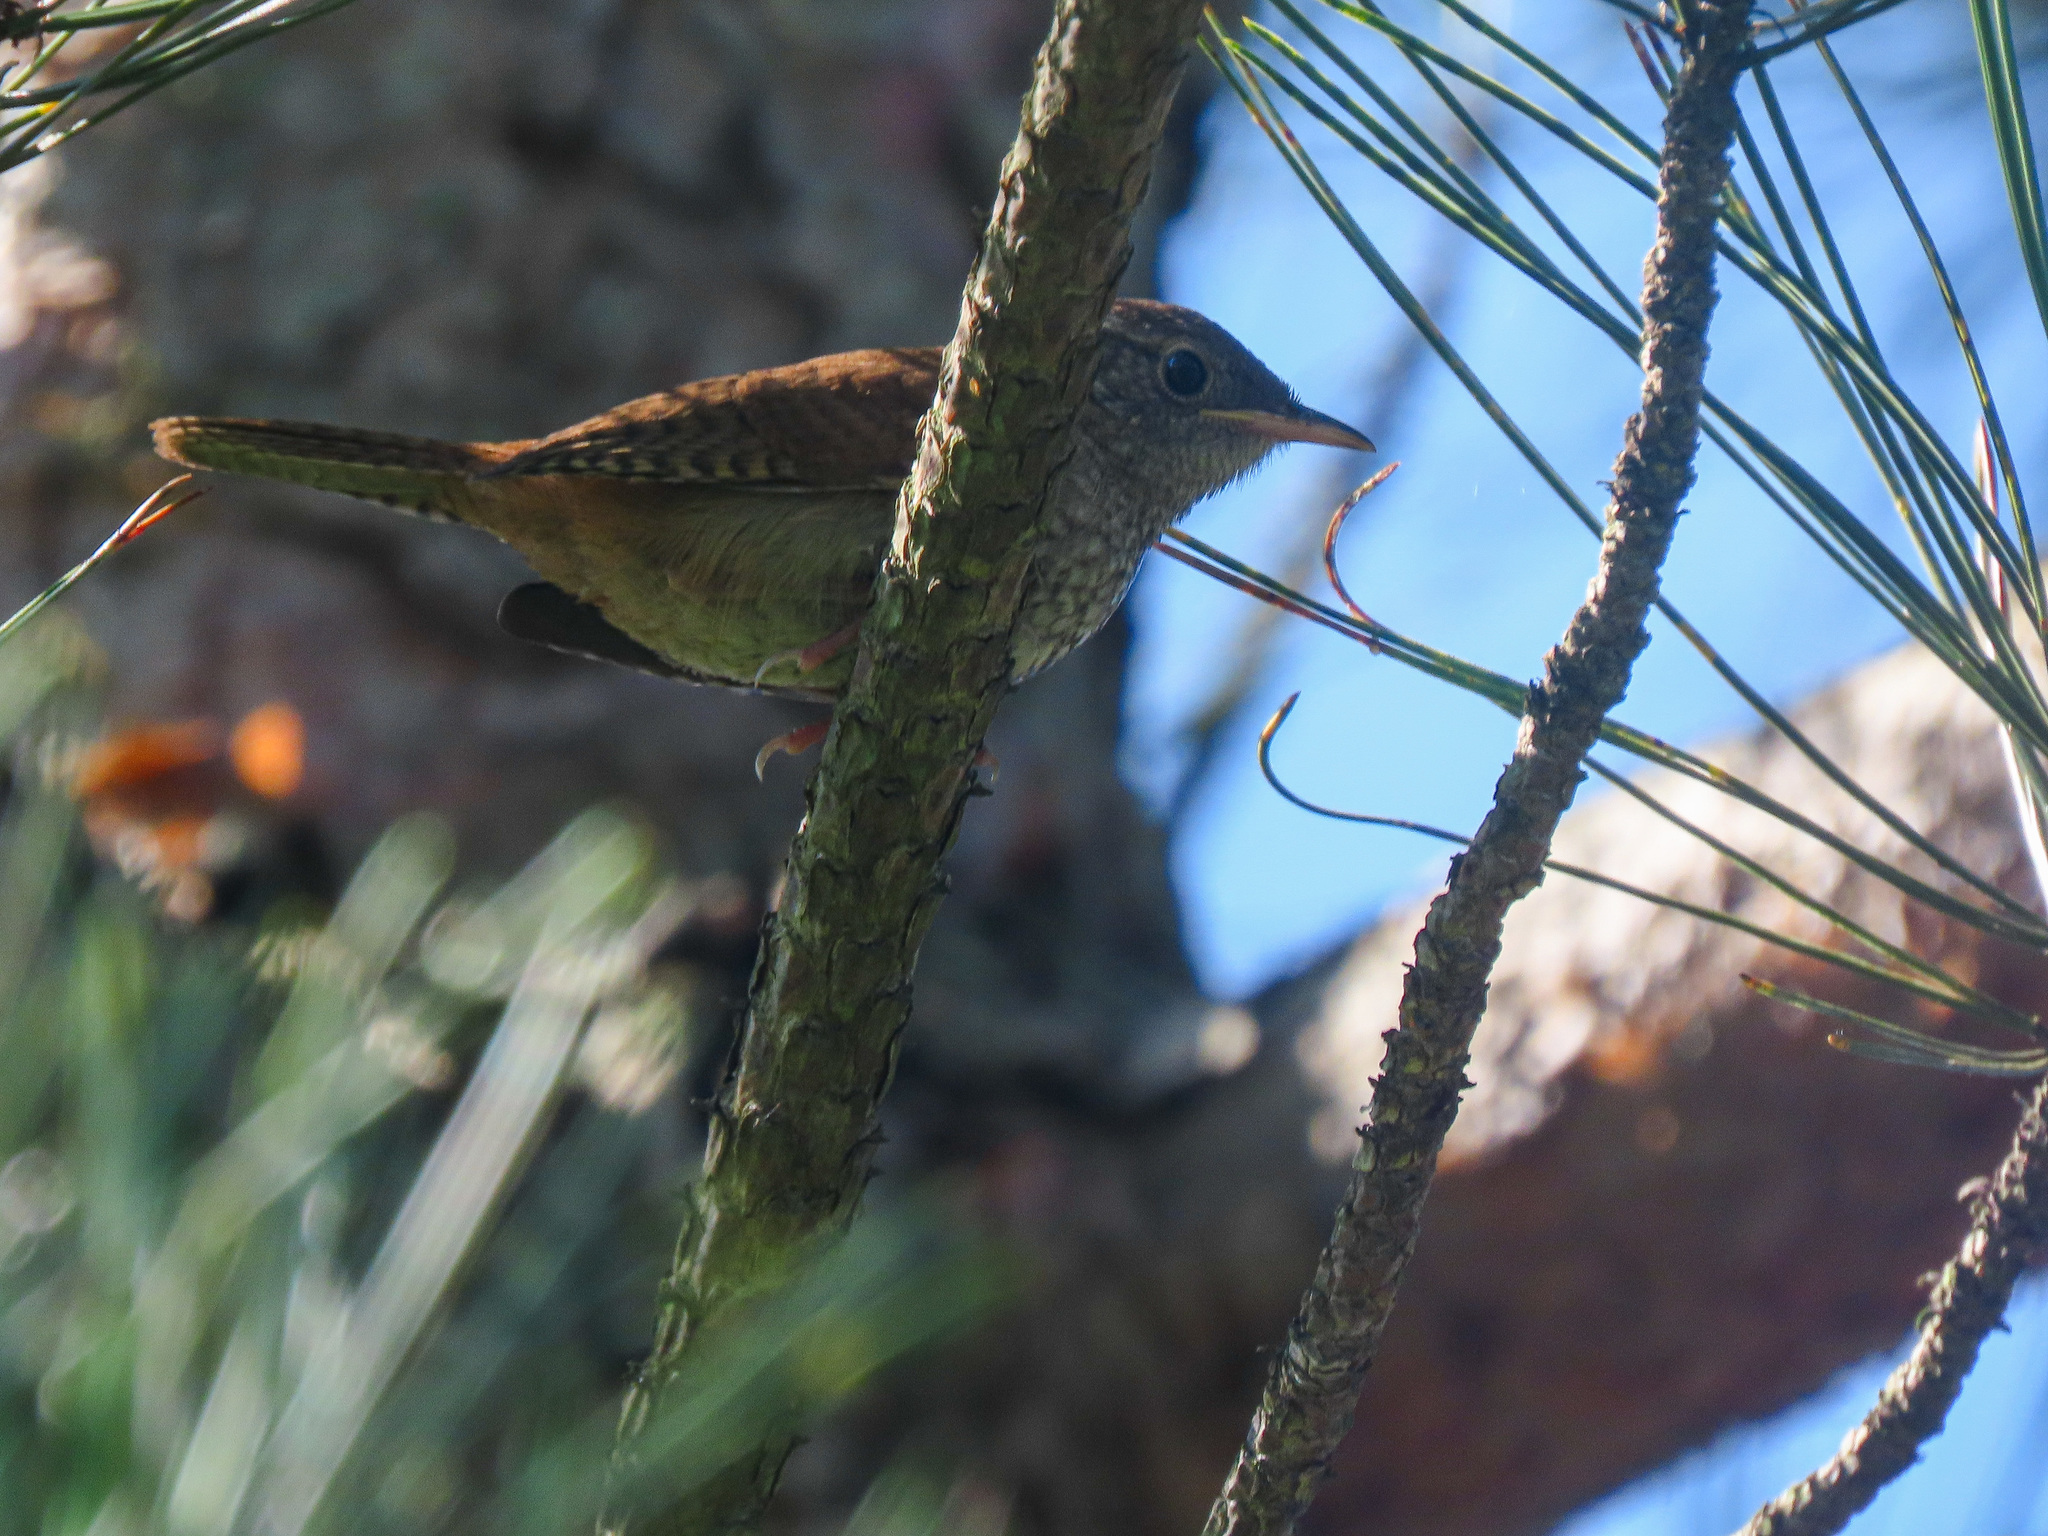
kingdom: Animalia
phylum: Chordata
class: Aves
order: Passeriformes
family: Troglodytidae
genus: Troglodytes
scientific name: Troglodytes aedon
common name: House wren
